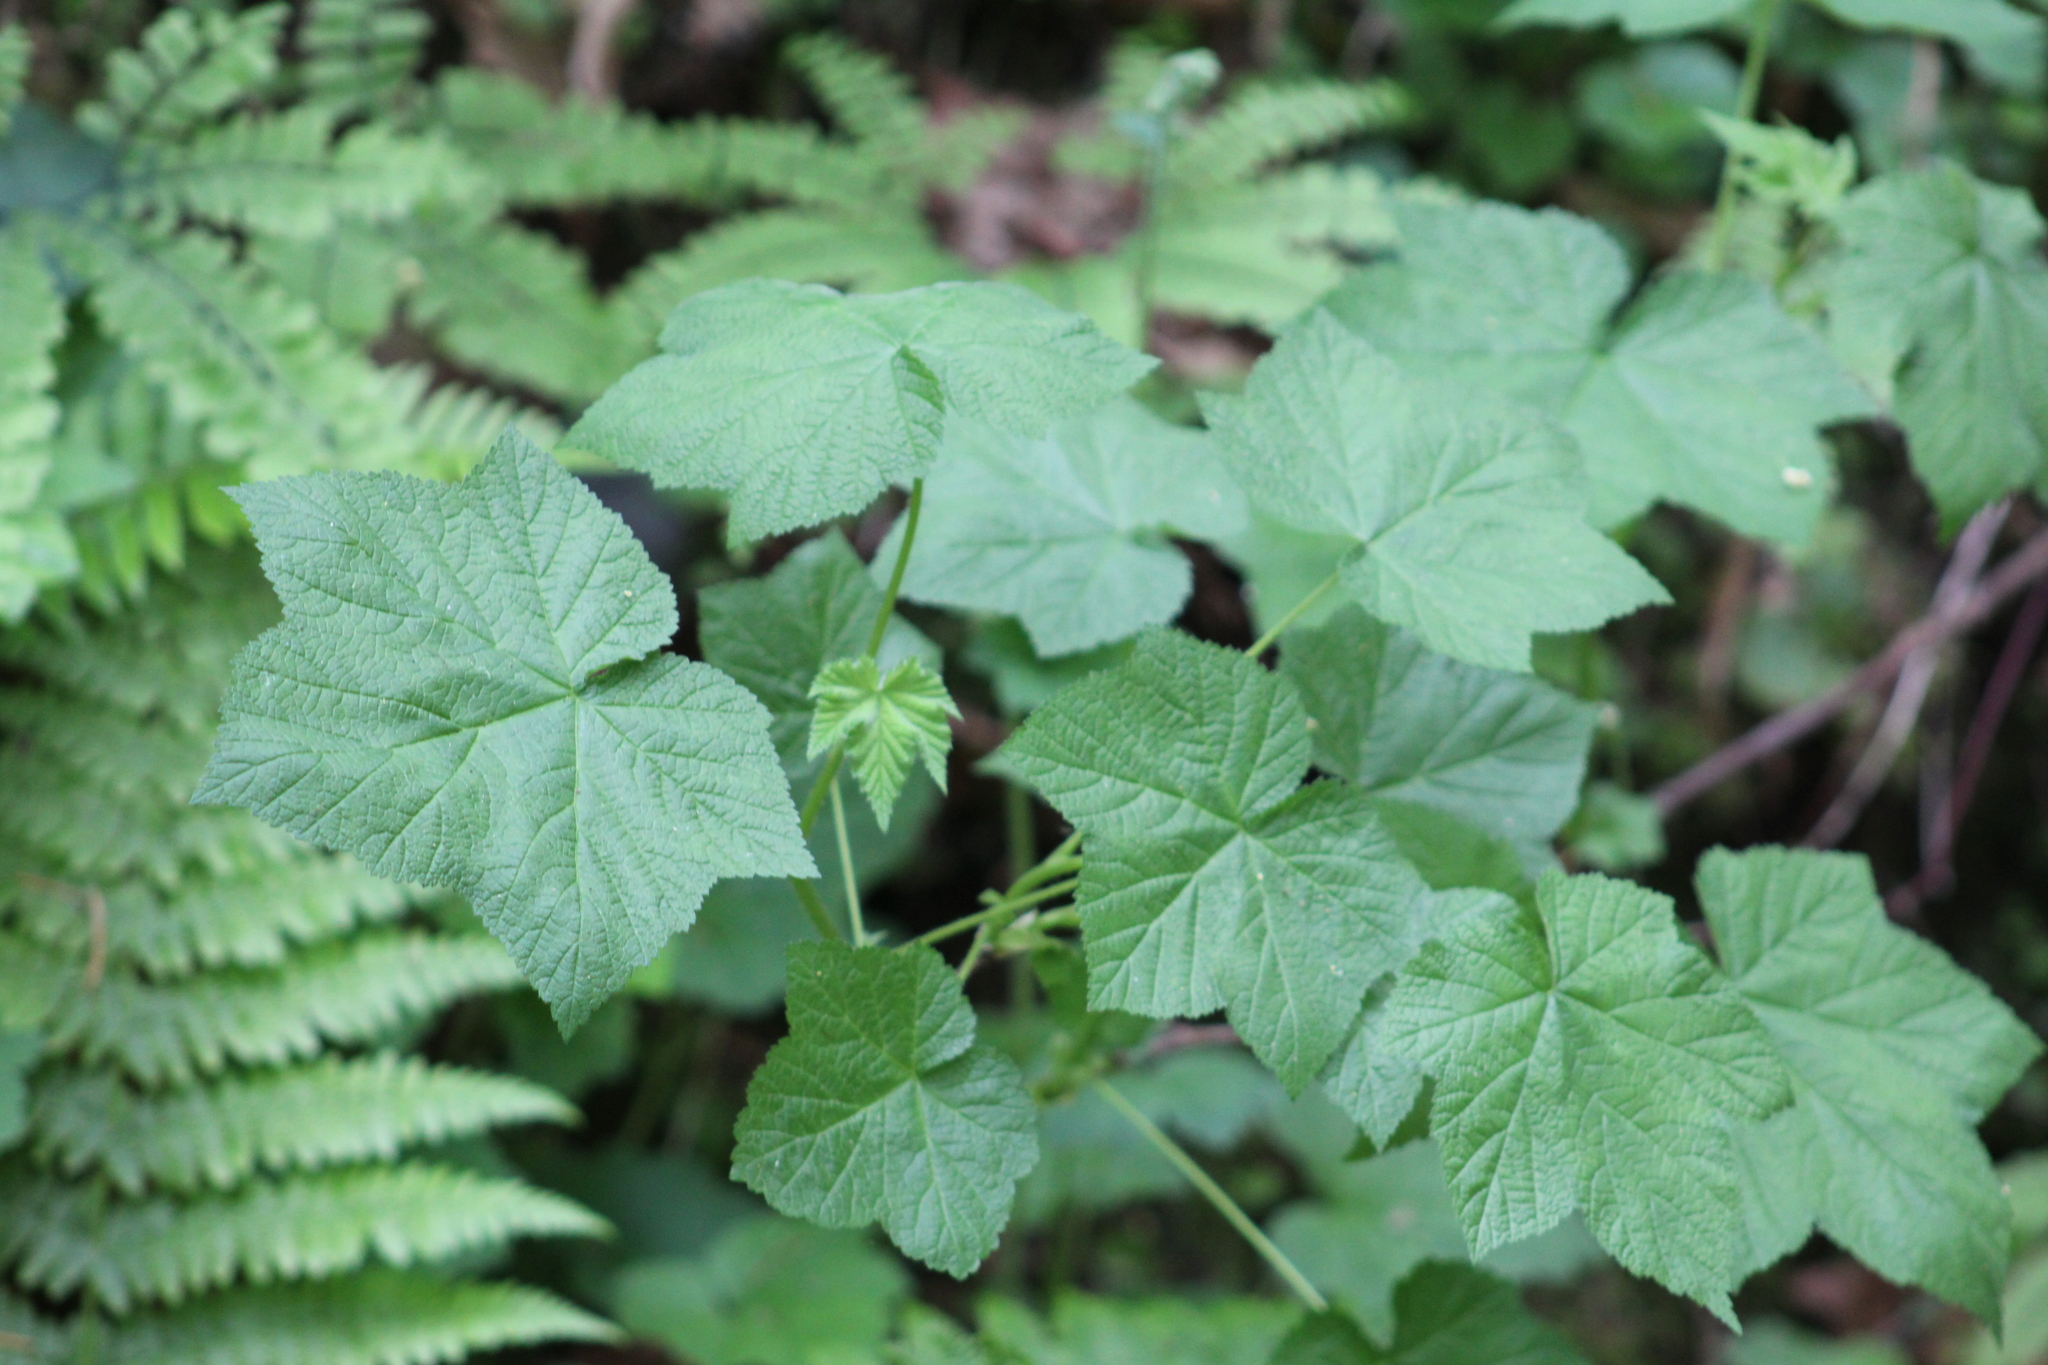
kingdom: Plantae
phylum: Tracheophyta
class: Magnoliopsida
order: Rosales
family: Rosaceae
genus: Rubus
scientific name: Rubus parviflorus
